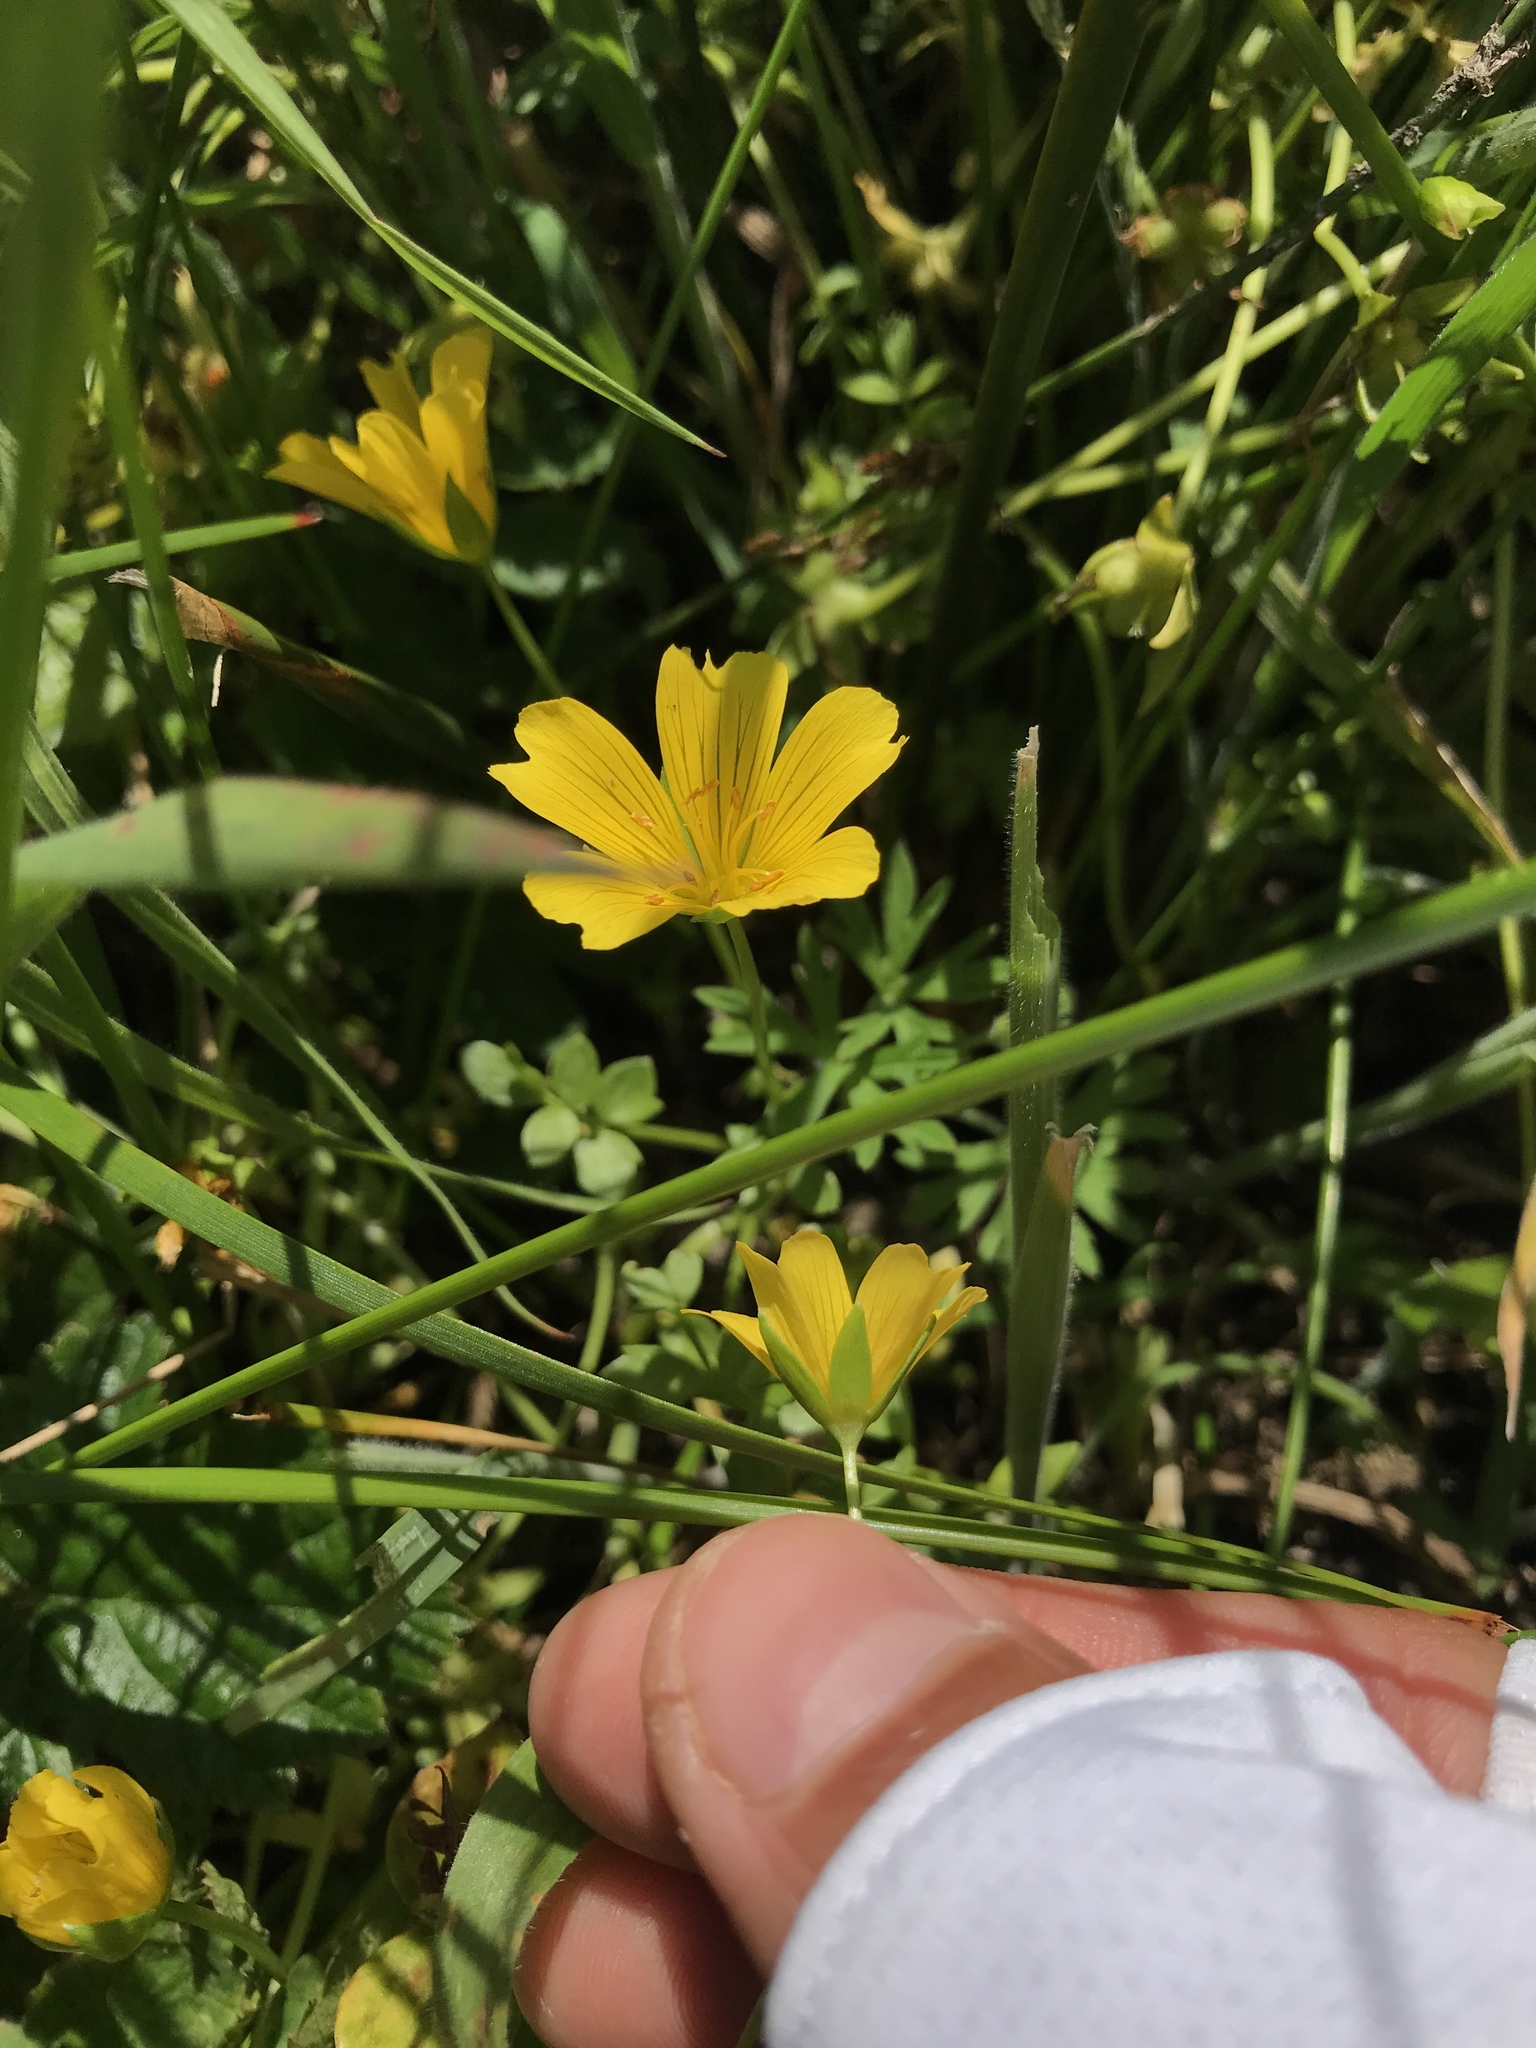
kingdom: Plantae
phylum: Tracheophyta
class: Magnoliopsida
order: Brassicales
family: Limnanthaceae
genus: Limnanthes
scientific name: Limnanthes douglasii
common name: Meadow-foam
